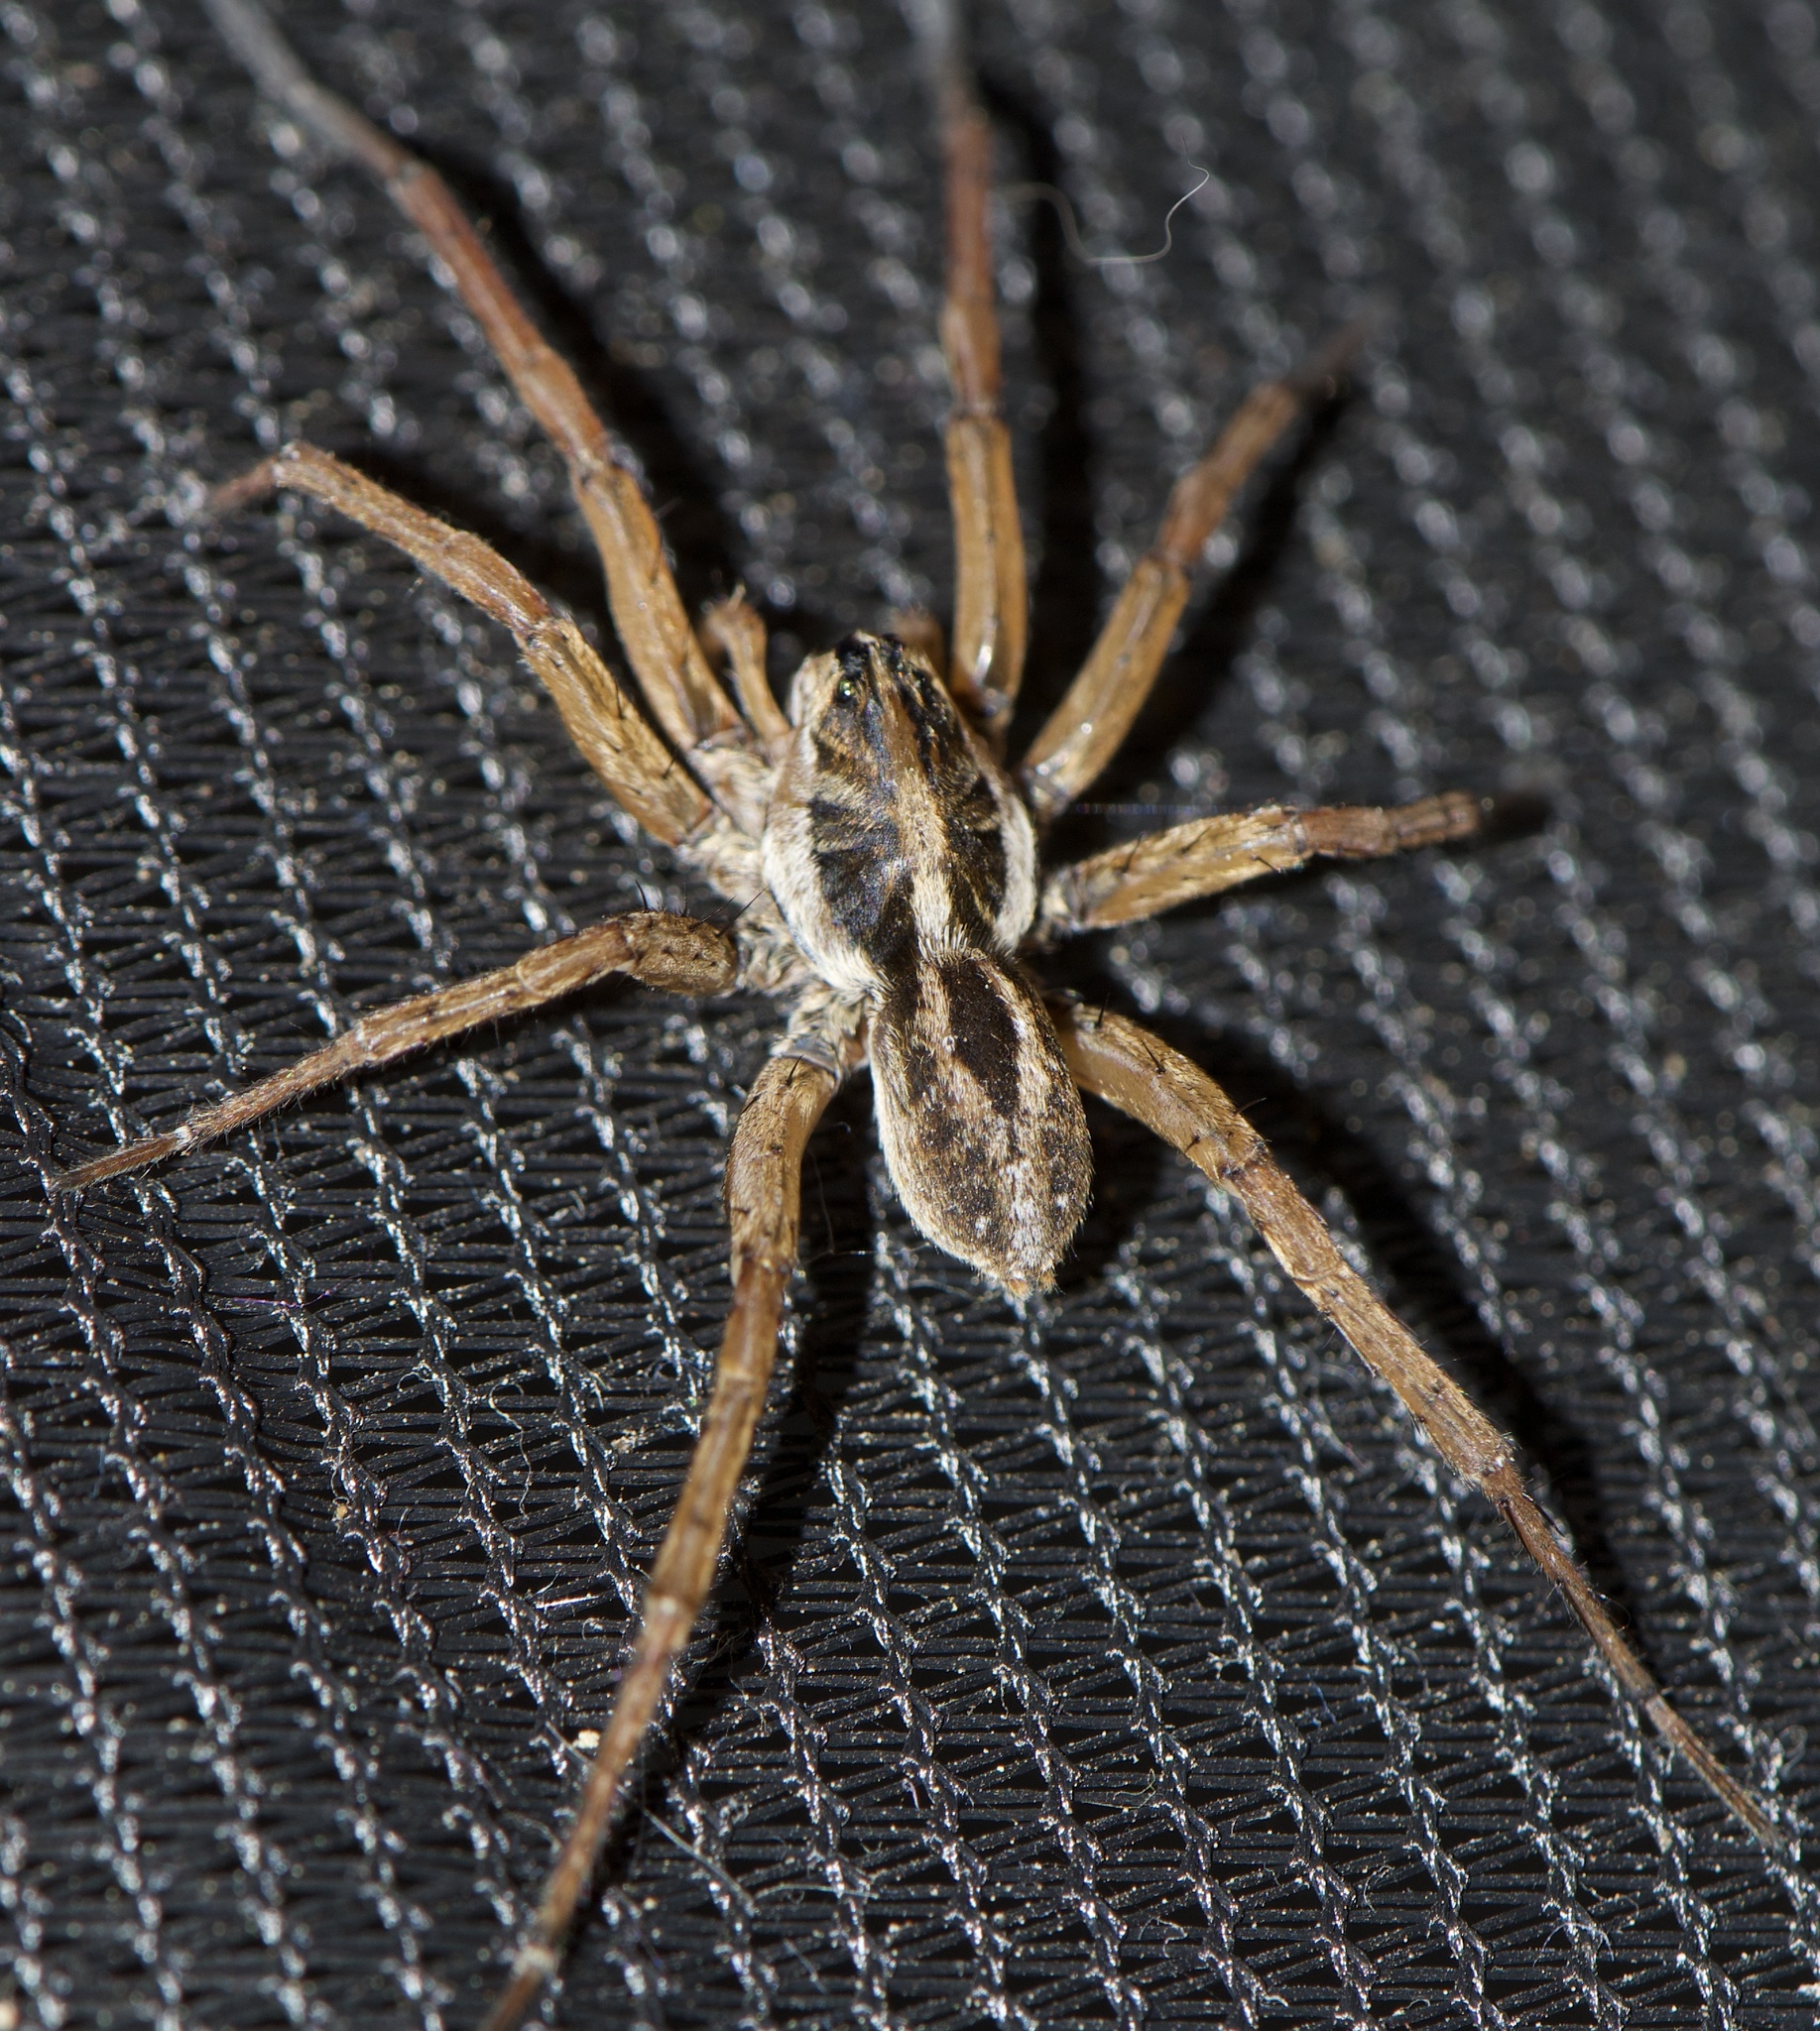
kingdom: Animalia
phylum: Arthropoda
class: Arachnida
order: Araneae
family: Lycosidae
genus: Tigrosa
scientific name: Tigrosa annexa
